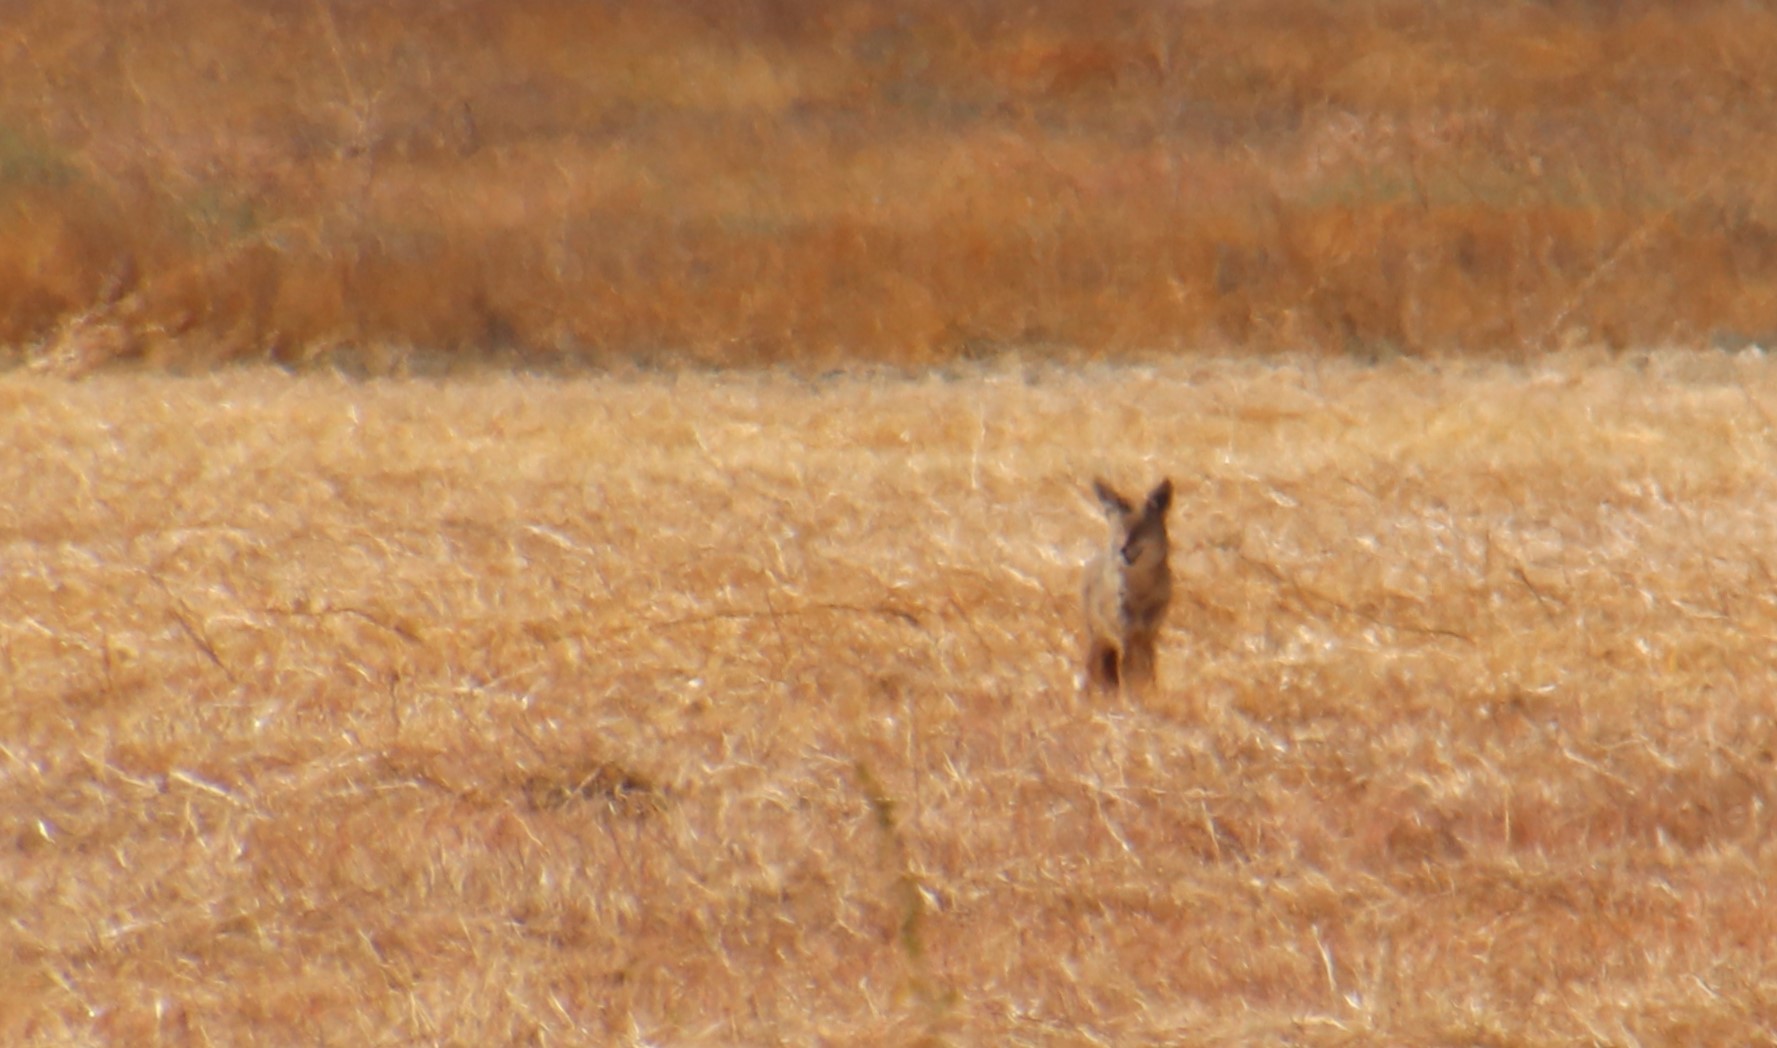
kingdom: Animalia
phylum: Chordata
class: Mammalia
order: Carnivora
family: Canidae
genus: Canis
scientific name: Canis latrans
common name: Coyote
